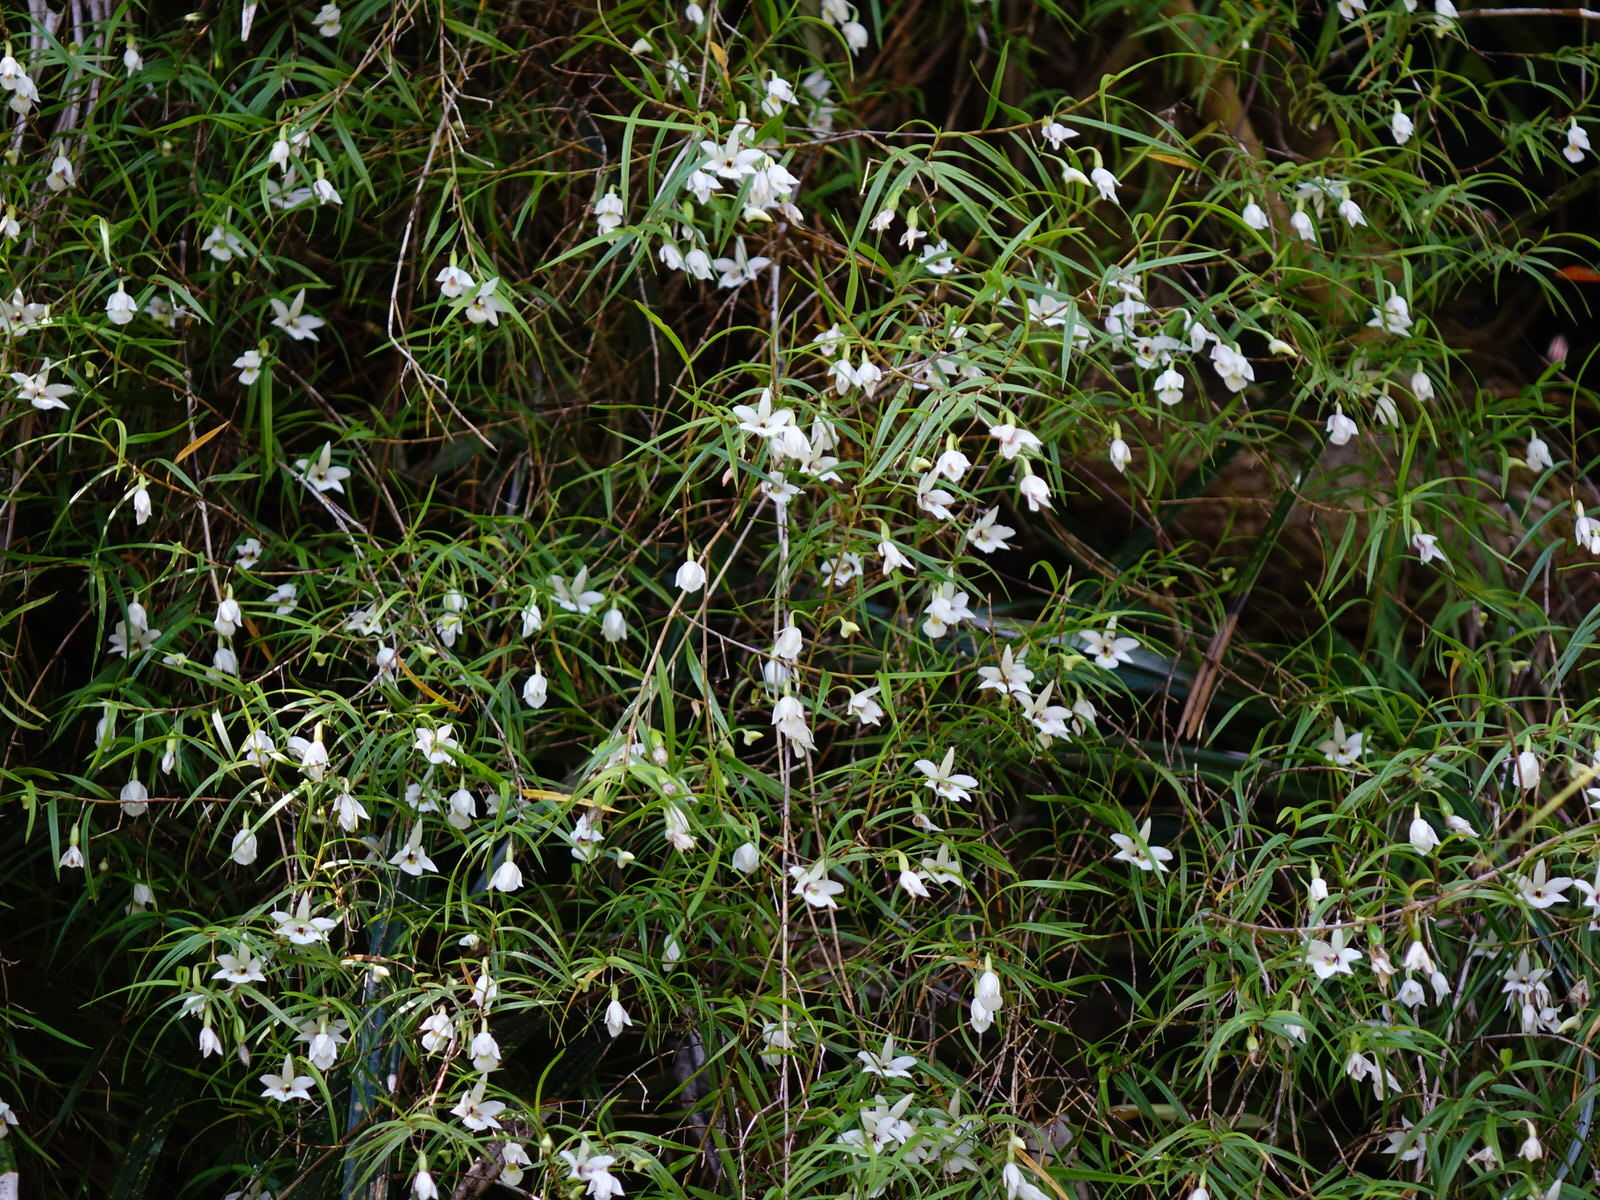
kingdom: Plantae
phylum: Tracheophyta
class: Liliopsida
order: Asparagales
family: Orchidaceae
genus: Dendrobium
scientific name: Dendrobium cunninghamii
